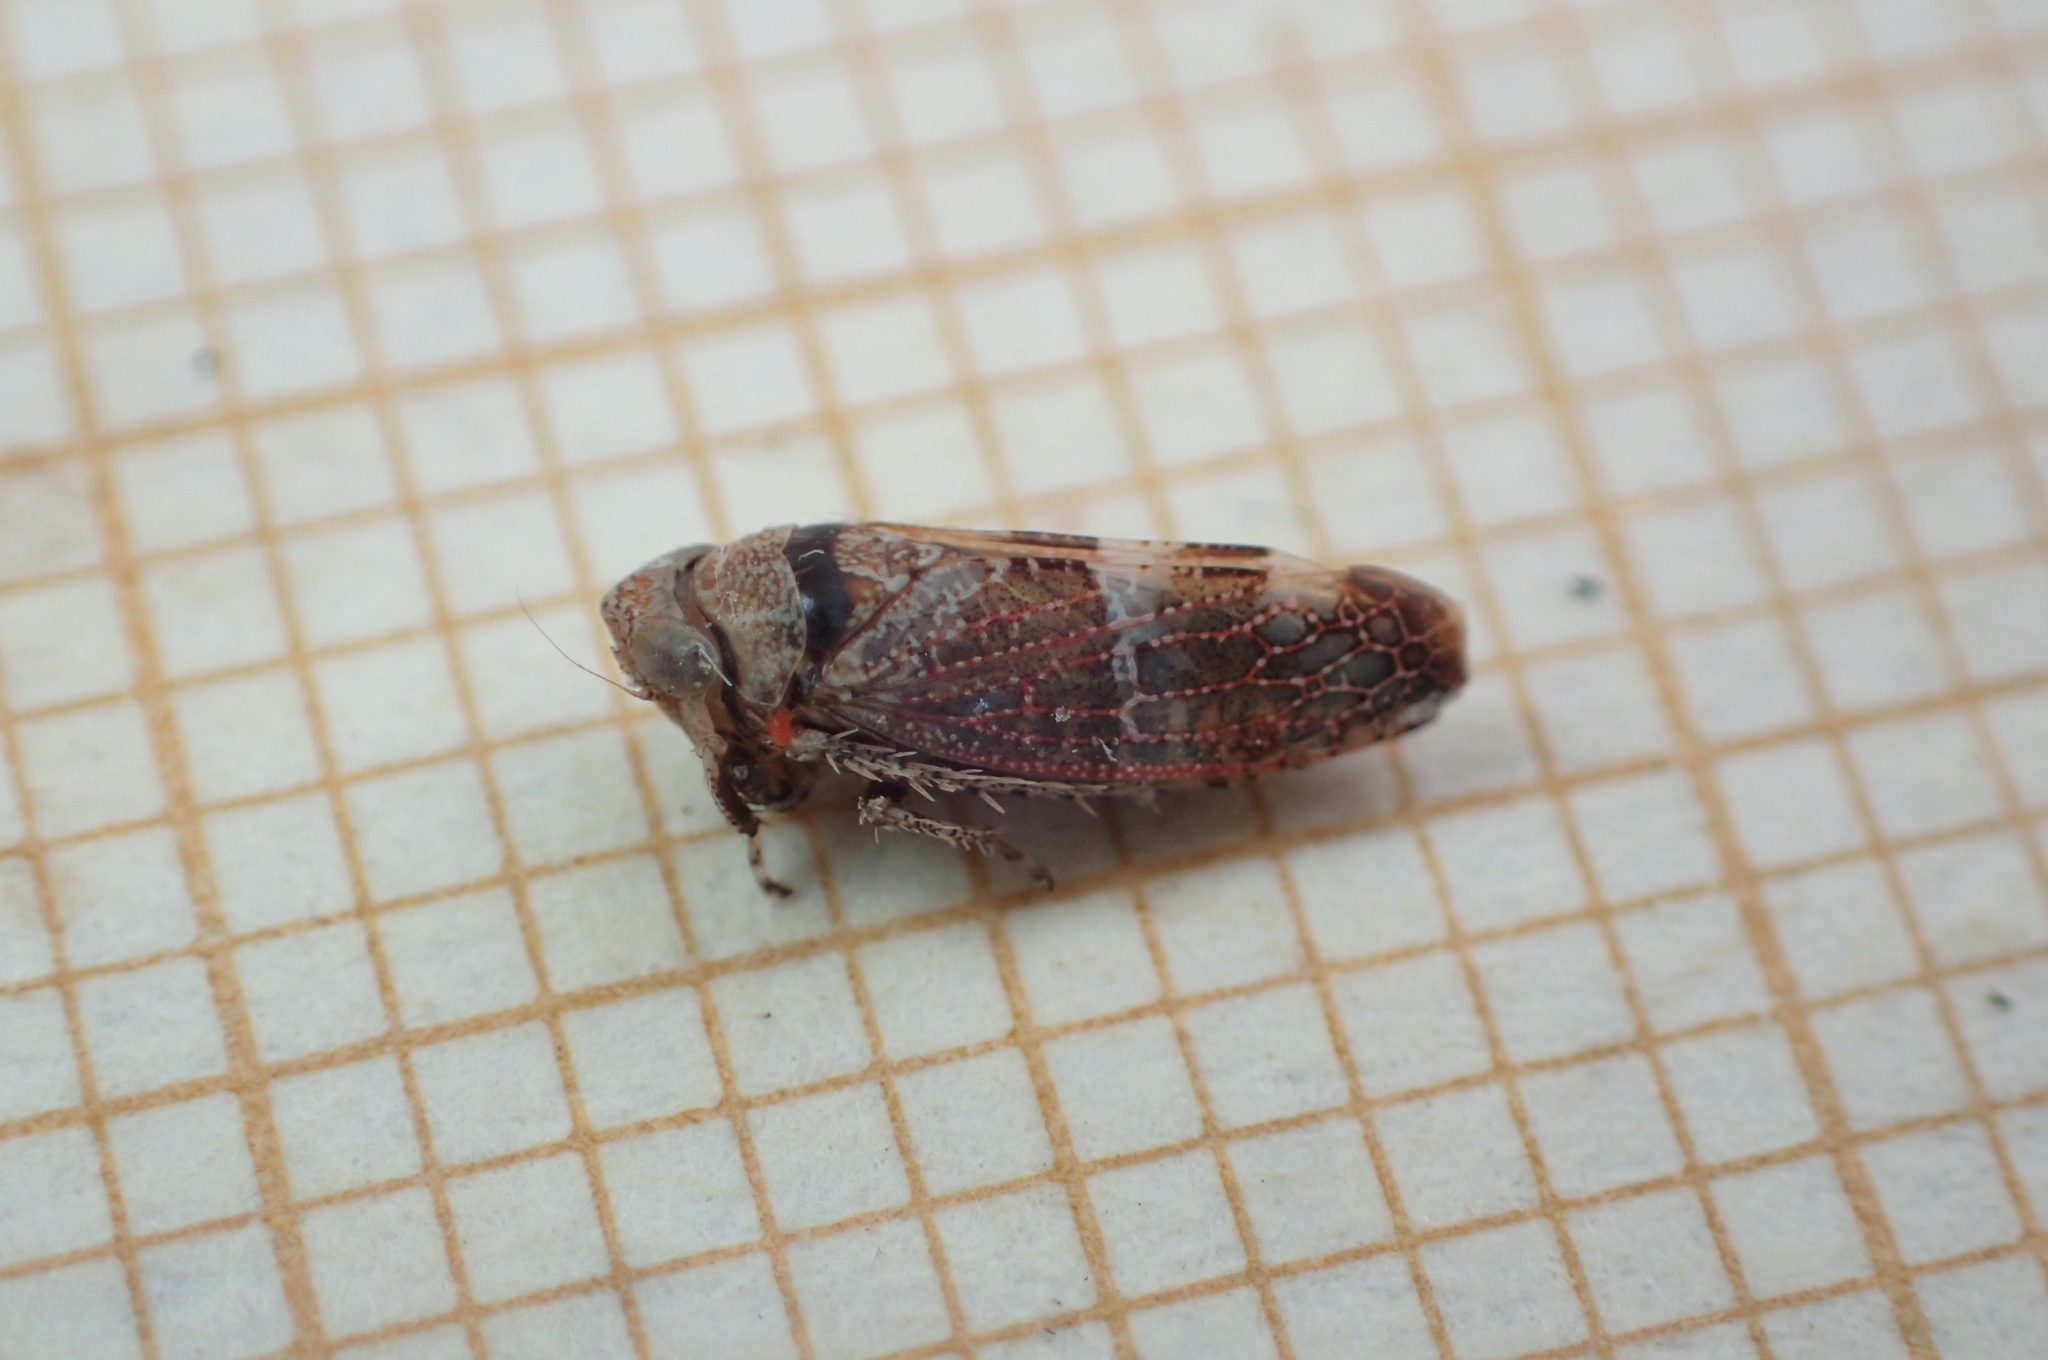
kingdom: Animalia
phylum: Arthropoda
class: Insecta
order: Hemiptera
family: Cicadellidae
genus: Stegelytra
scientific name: Stegelytra putoni
